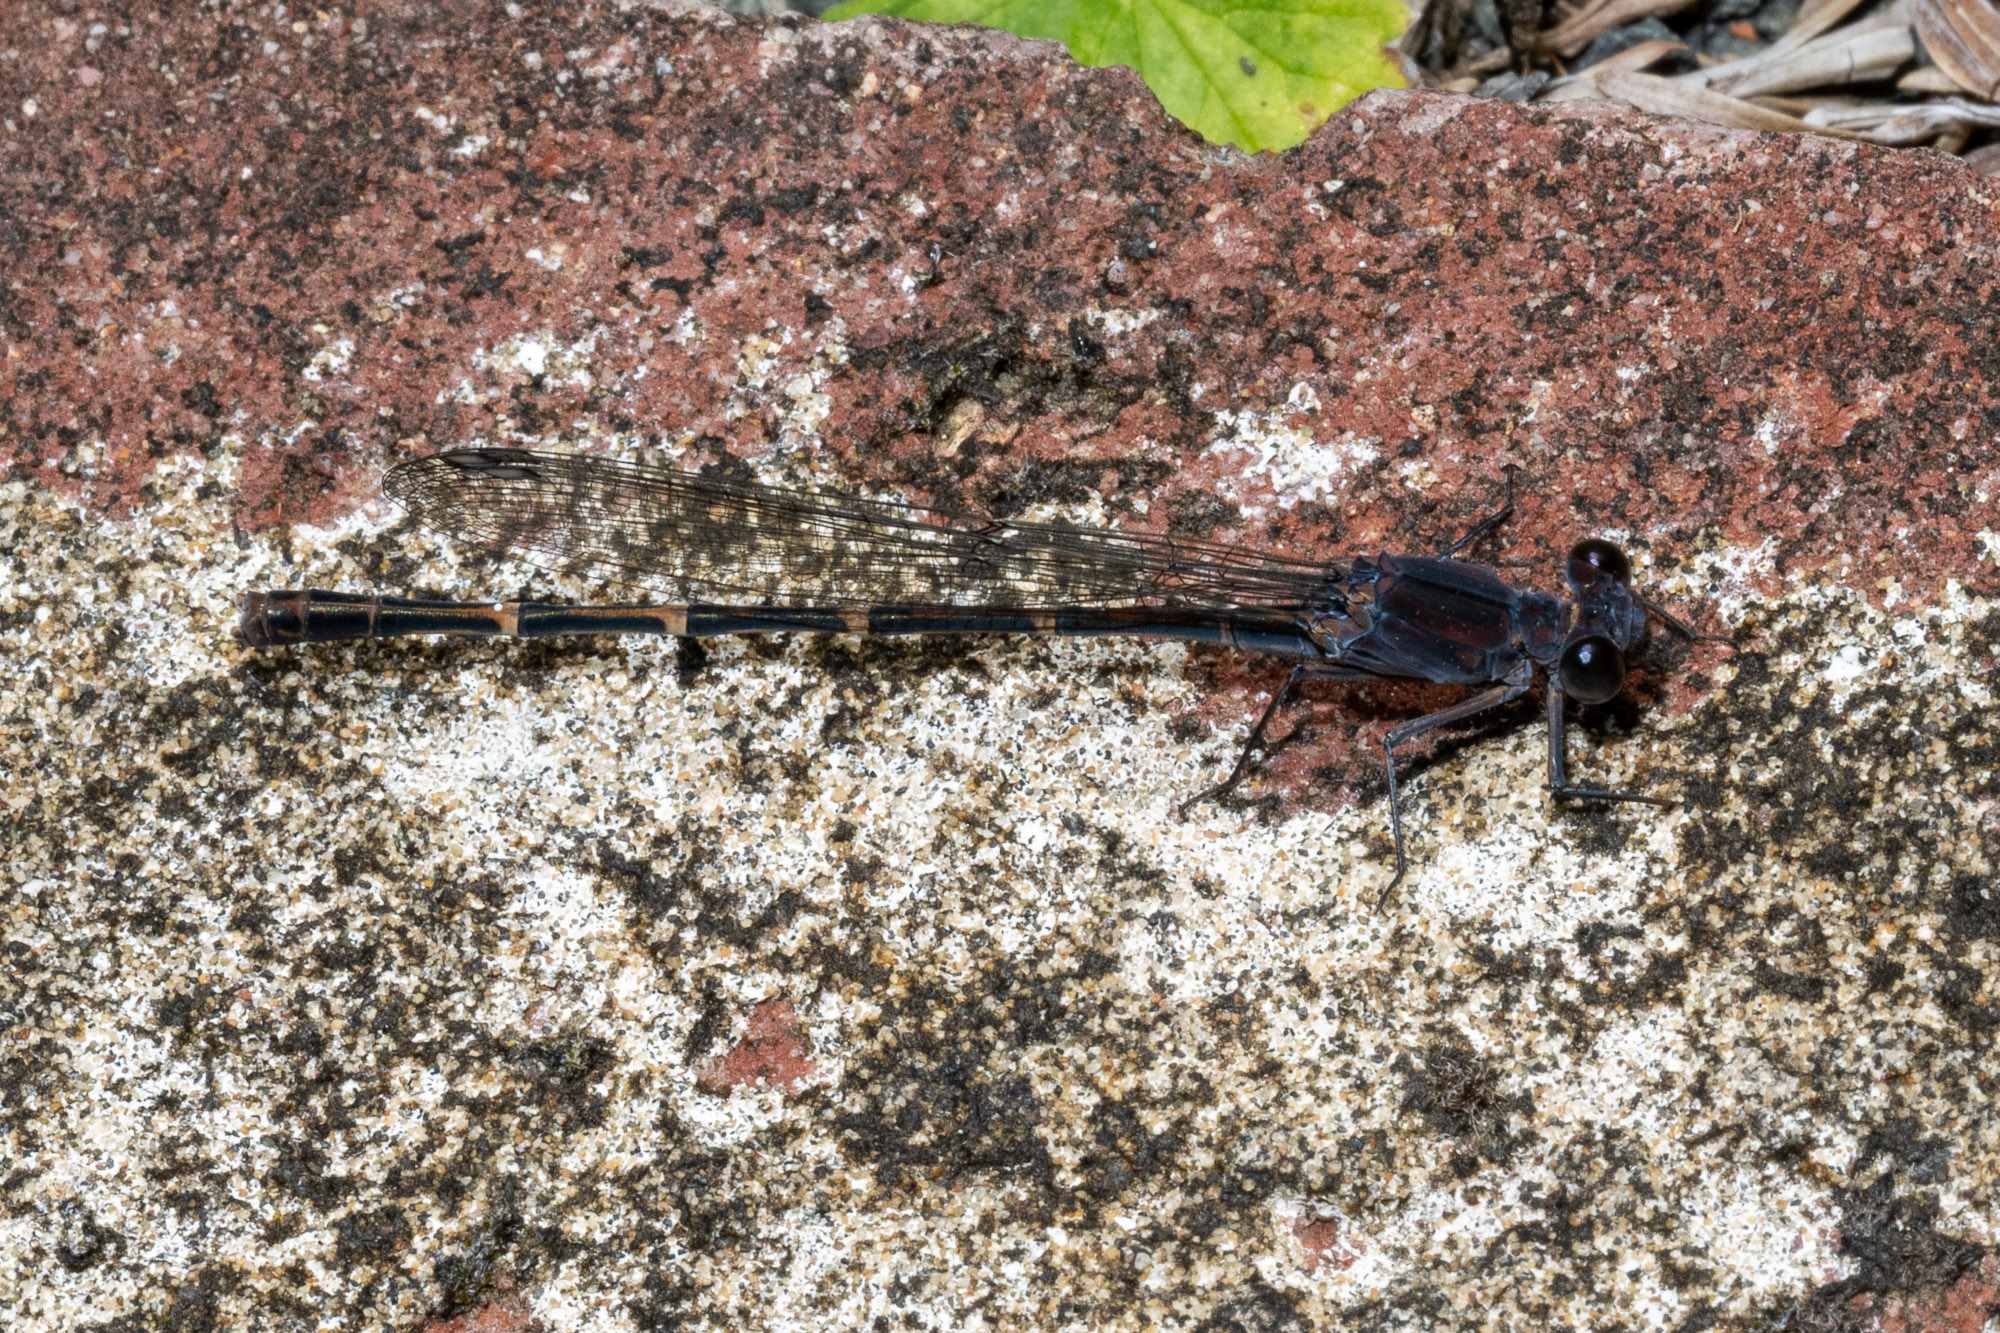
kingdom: Animalia
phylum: Arthropoda
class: Insecta
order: Odonata
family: Coenagrionidae
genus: Argia
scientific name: Argia lugens
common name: Sooty dancer
